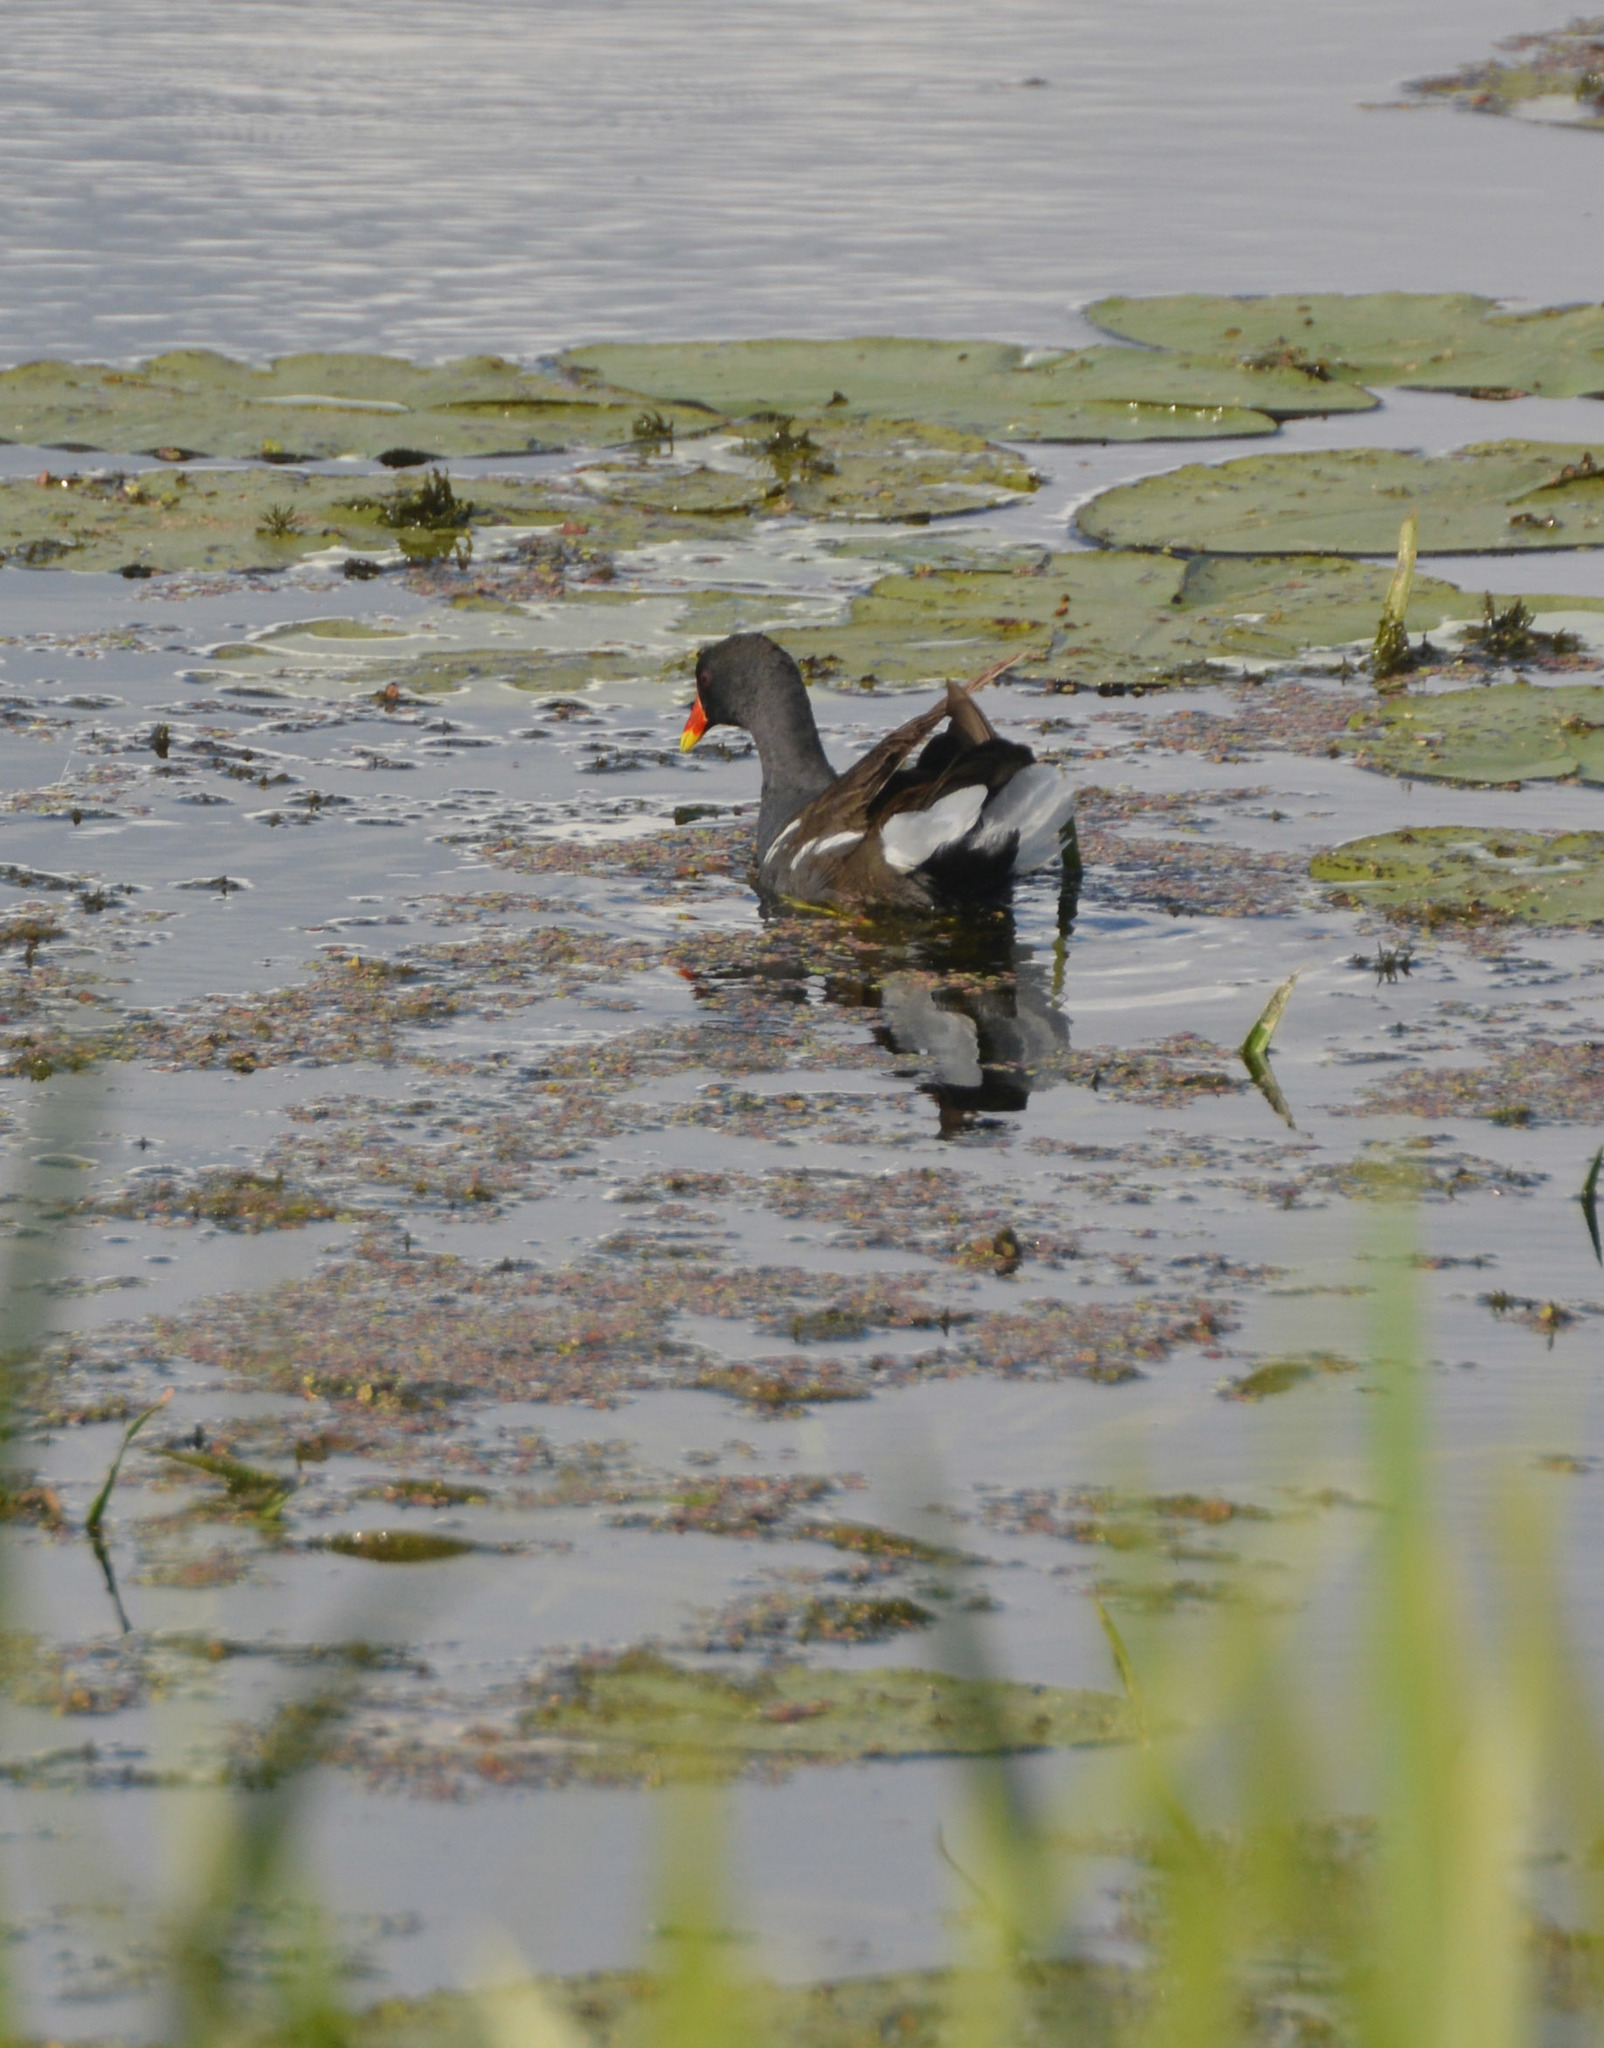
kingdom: Animalia
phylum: Chordata
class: Aves
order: Gruiformes
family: Rallidae
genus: Gallinula
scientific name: Gallinula chloropus
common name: Common moorhen
